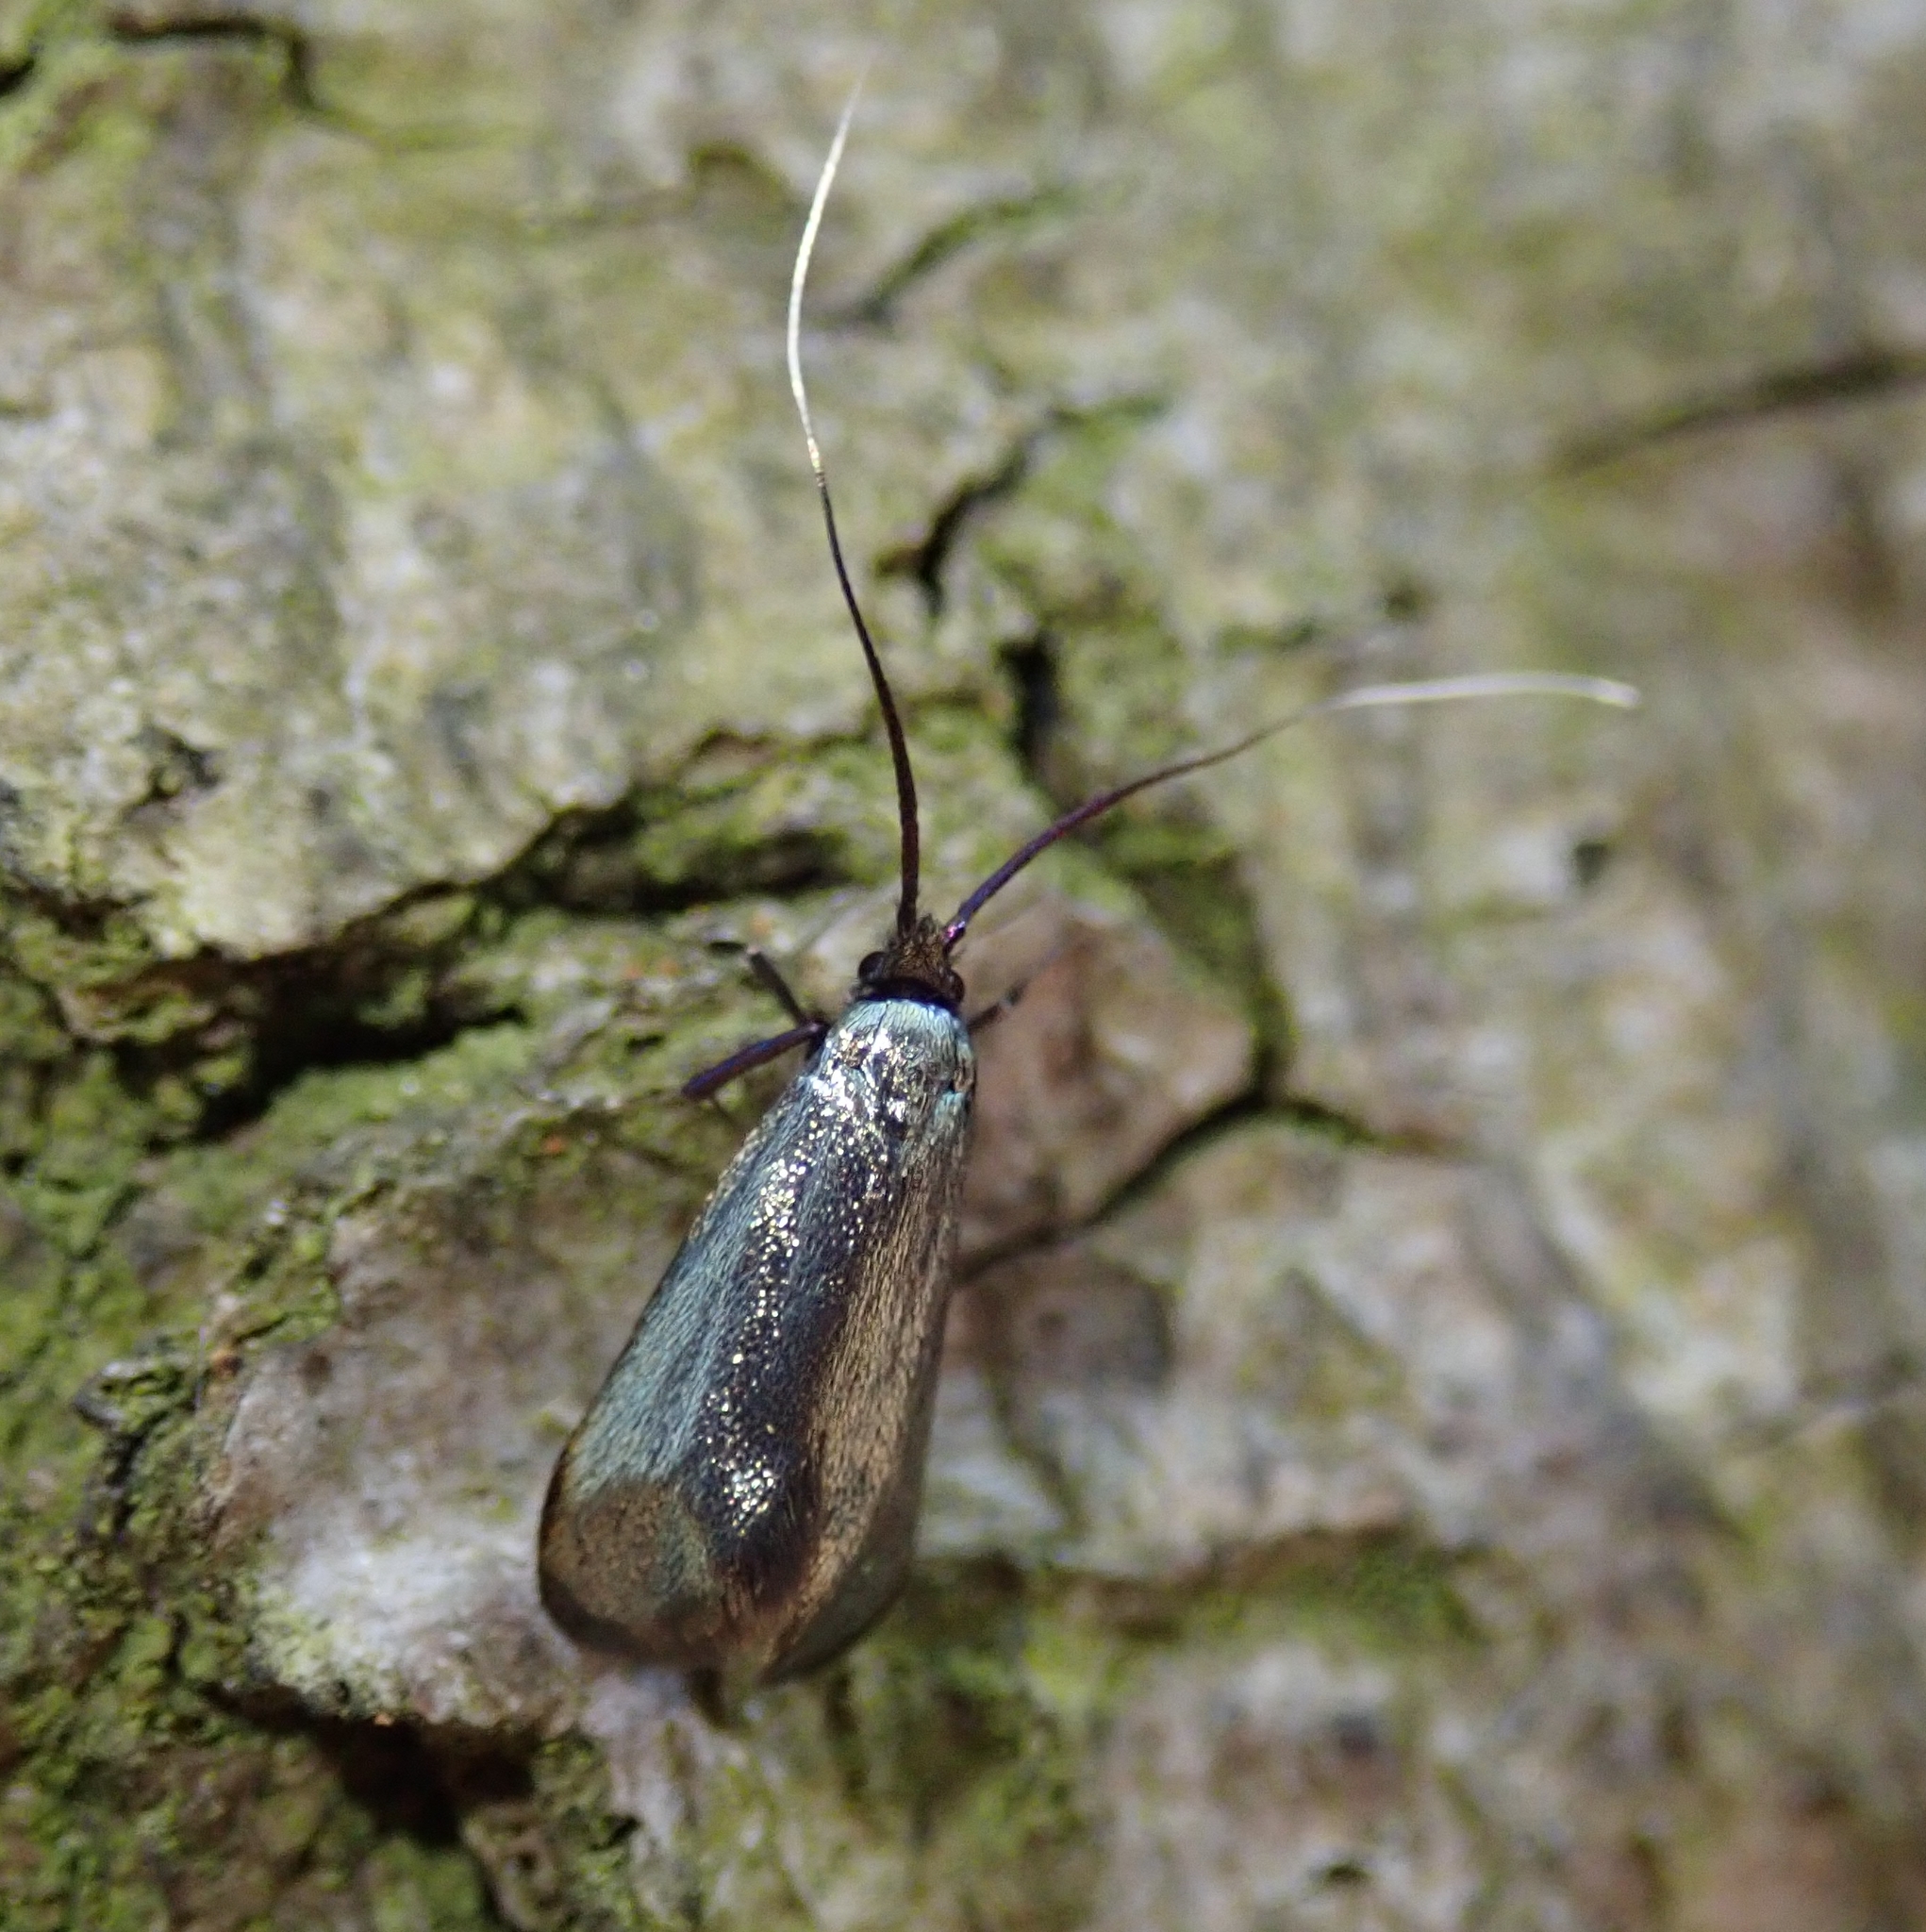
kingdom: Animalia
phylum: Arthropoda
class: Insecta
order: Lepidoptera
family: Adelidae
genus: Adela
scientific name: Adela viridella
